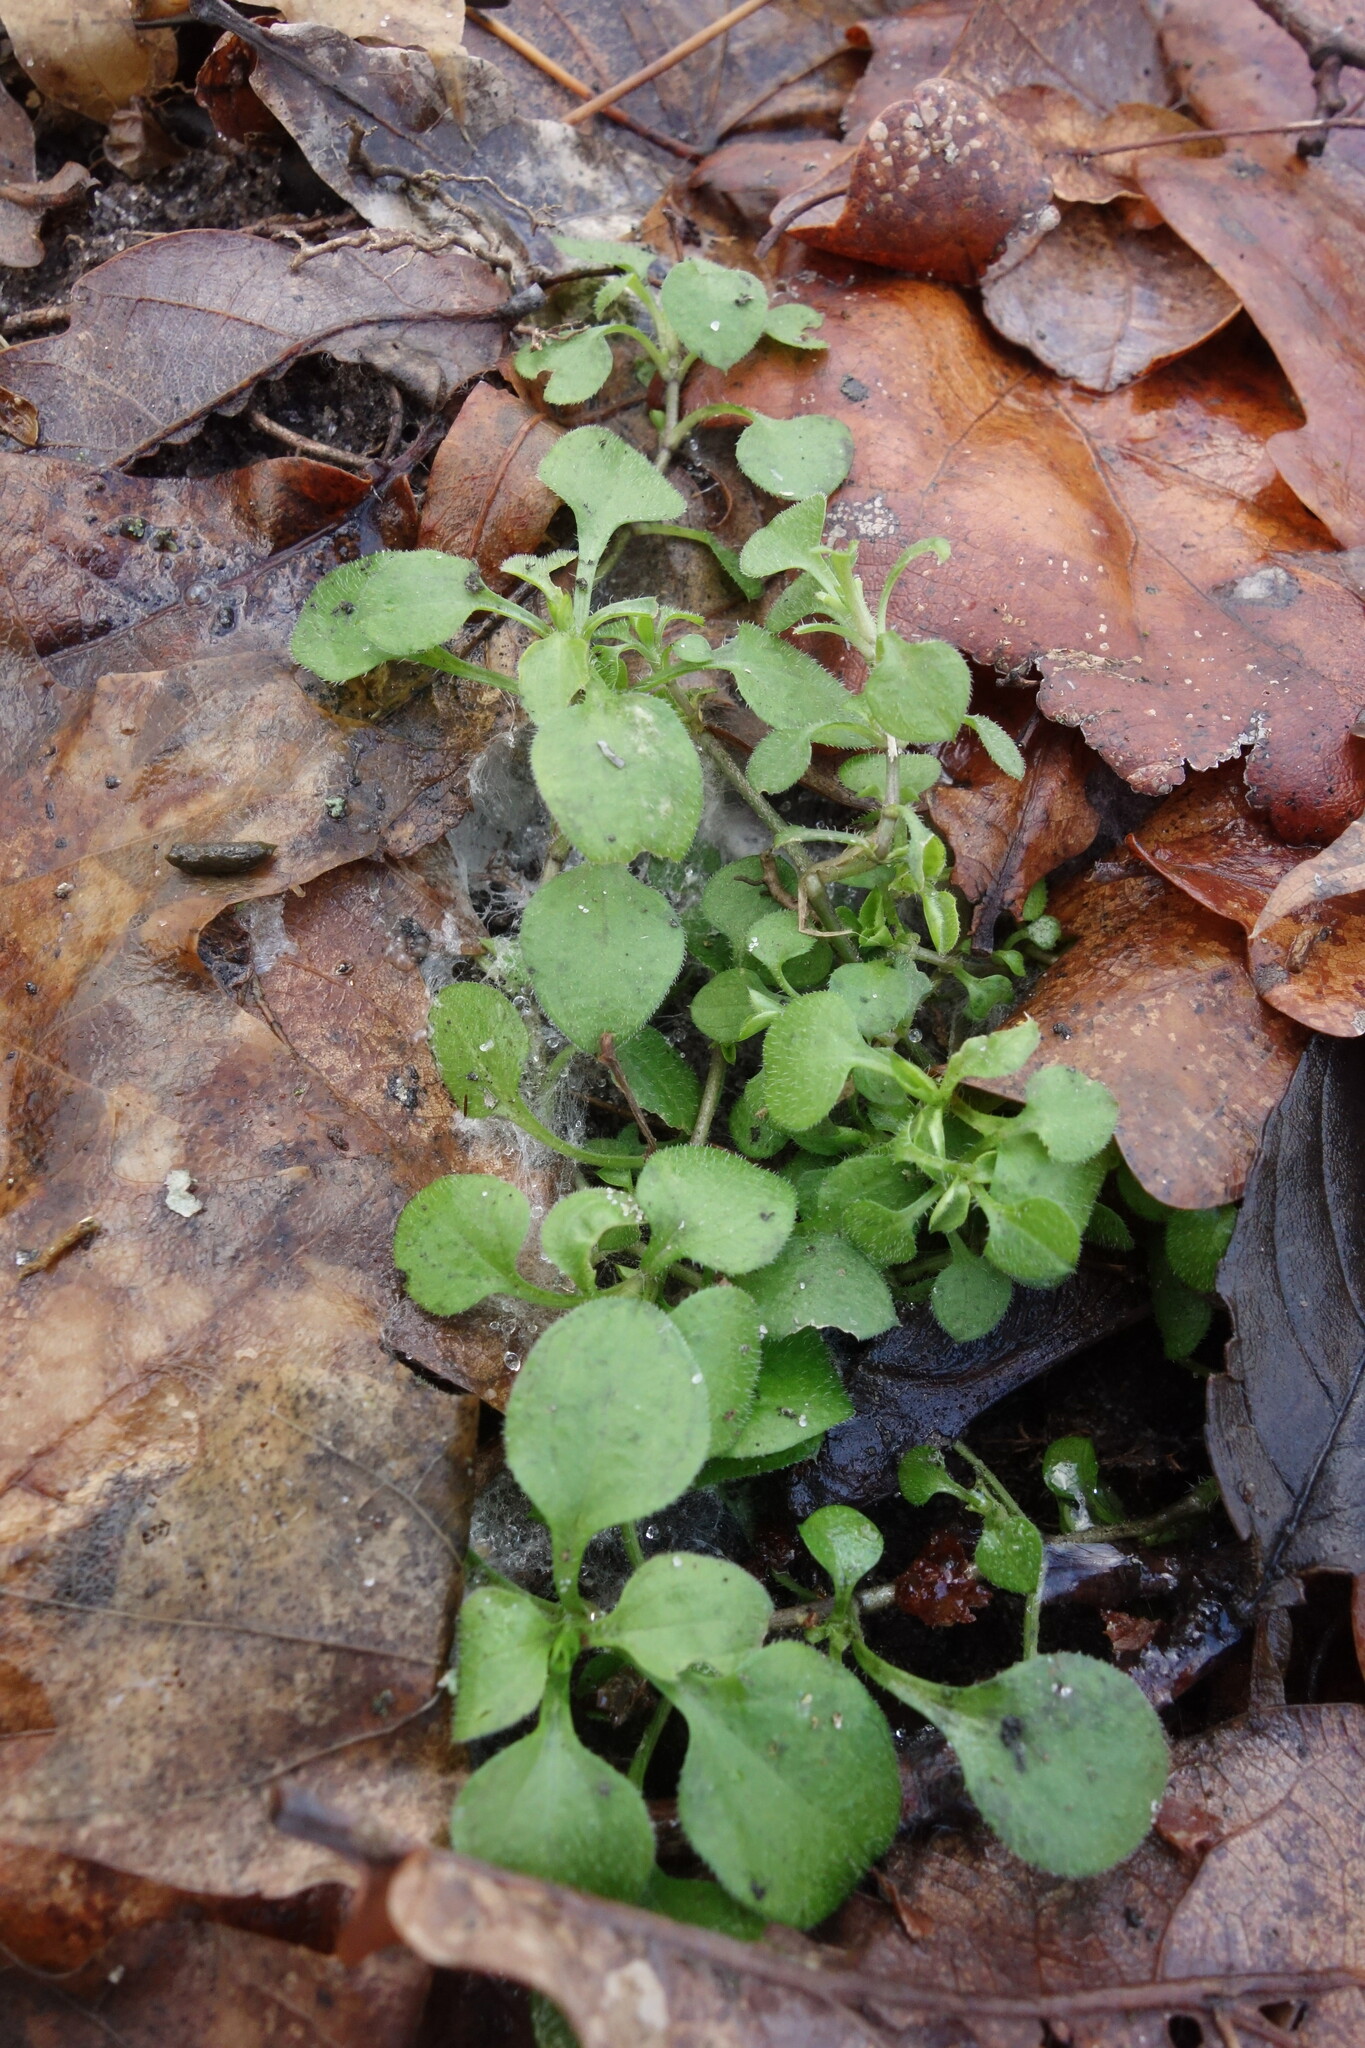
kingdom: Plantae
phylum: Tracheophyta
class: Magnoliopsida
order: Caryophyllales
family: Caryophyllaceae
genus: Moehringia
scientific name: Moehringia trinervia
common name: Three-nerved sandwort
